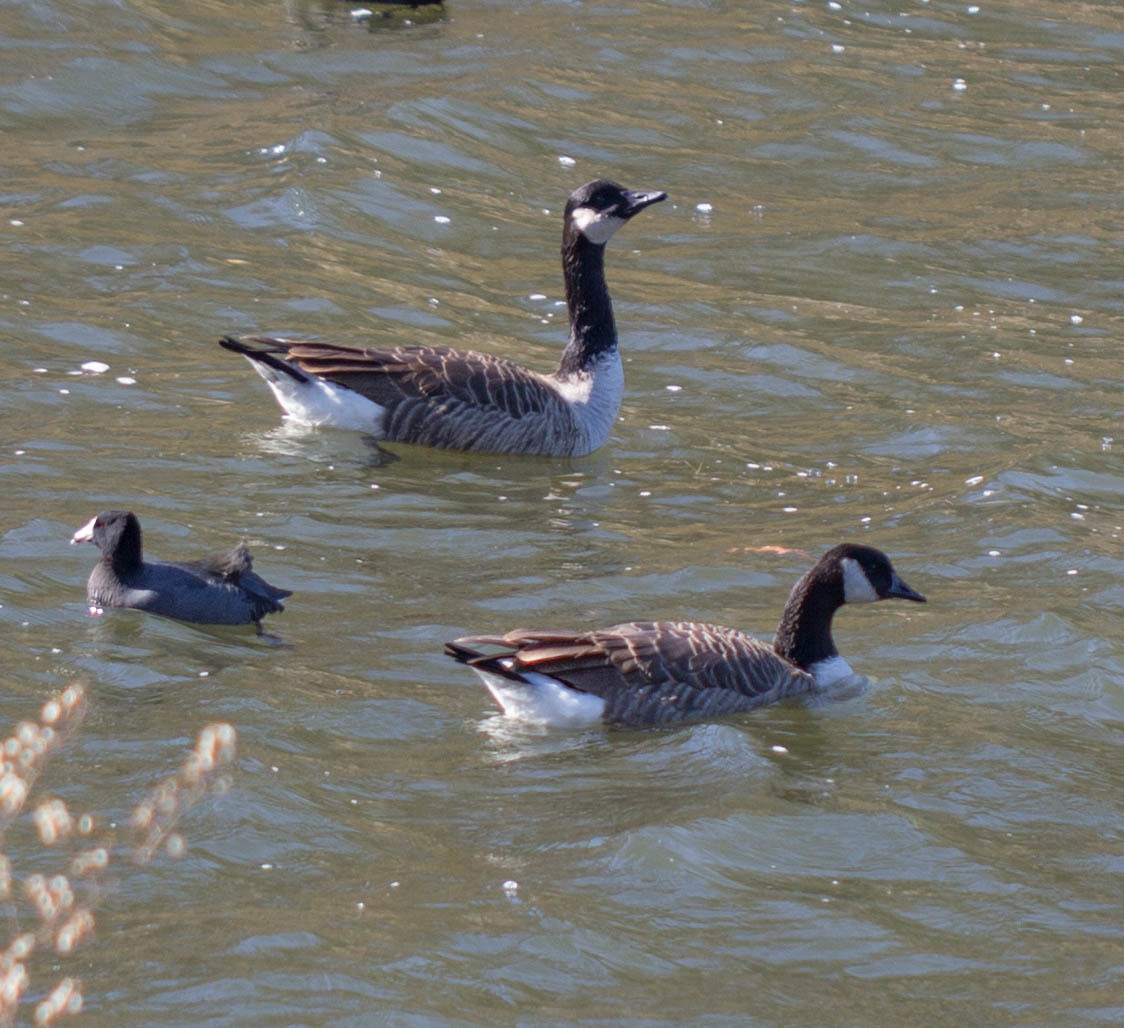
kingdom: Animalia
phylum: Chordata
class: Aves
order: Anseriformes
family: Anatidae
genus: Branta
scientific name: Branta canadensis
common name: Canada goose
